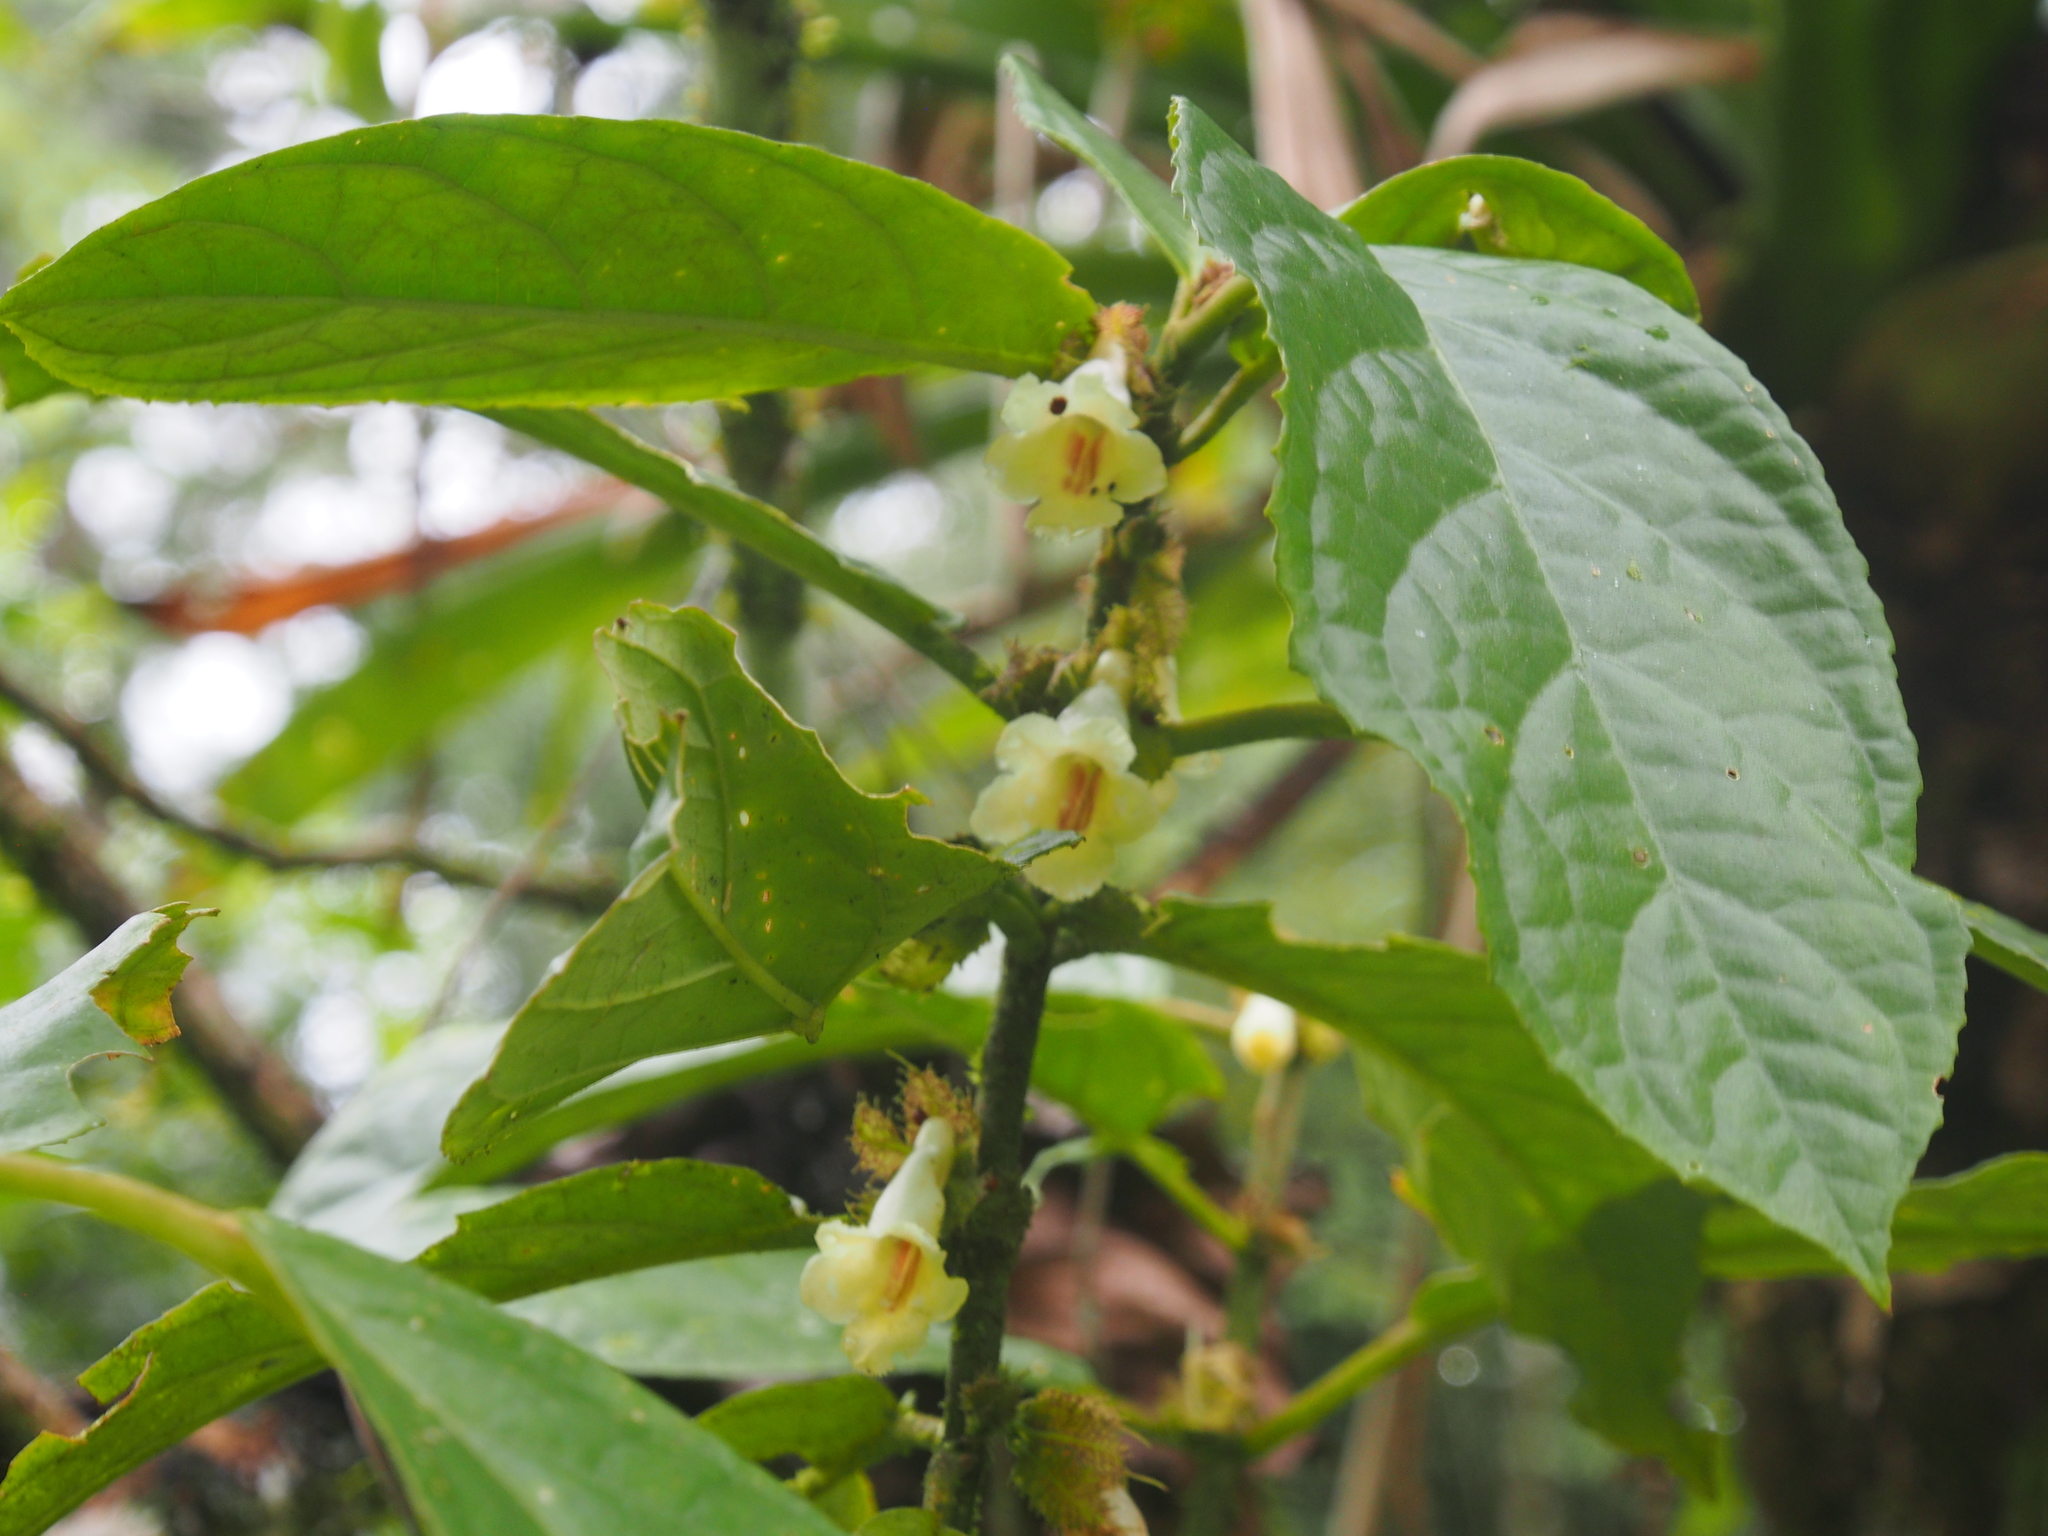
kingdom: Plantae
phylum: Tracheophyta
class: Magnoliopsida
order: Lamiales
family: Gesneriaceae
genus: Drymonia
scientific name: Drymonia macrophylla
